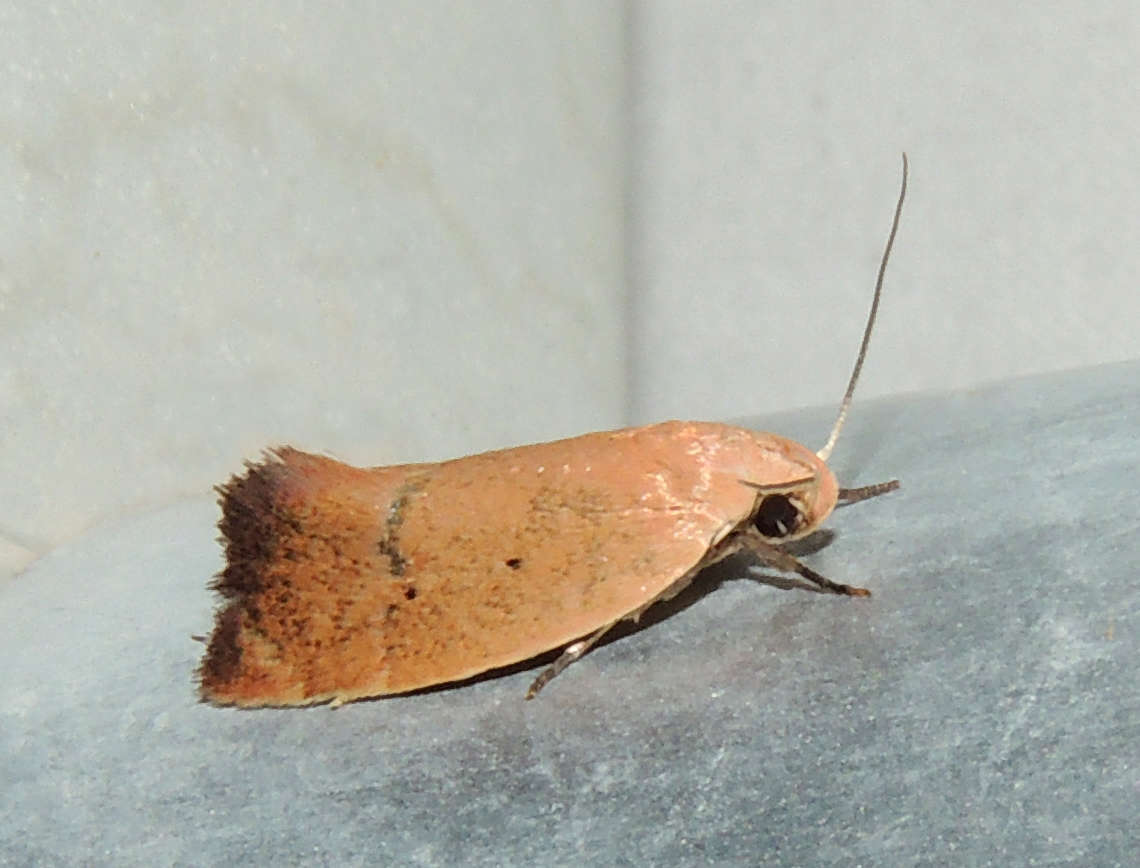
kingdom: Animalia
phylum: Arthropoda
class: Insecta
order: Lepidoptera
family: Oecophoridae
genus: Acanthodela
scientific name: Acanthodela protophaes
